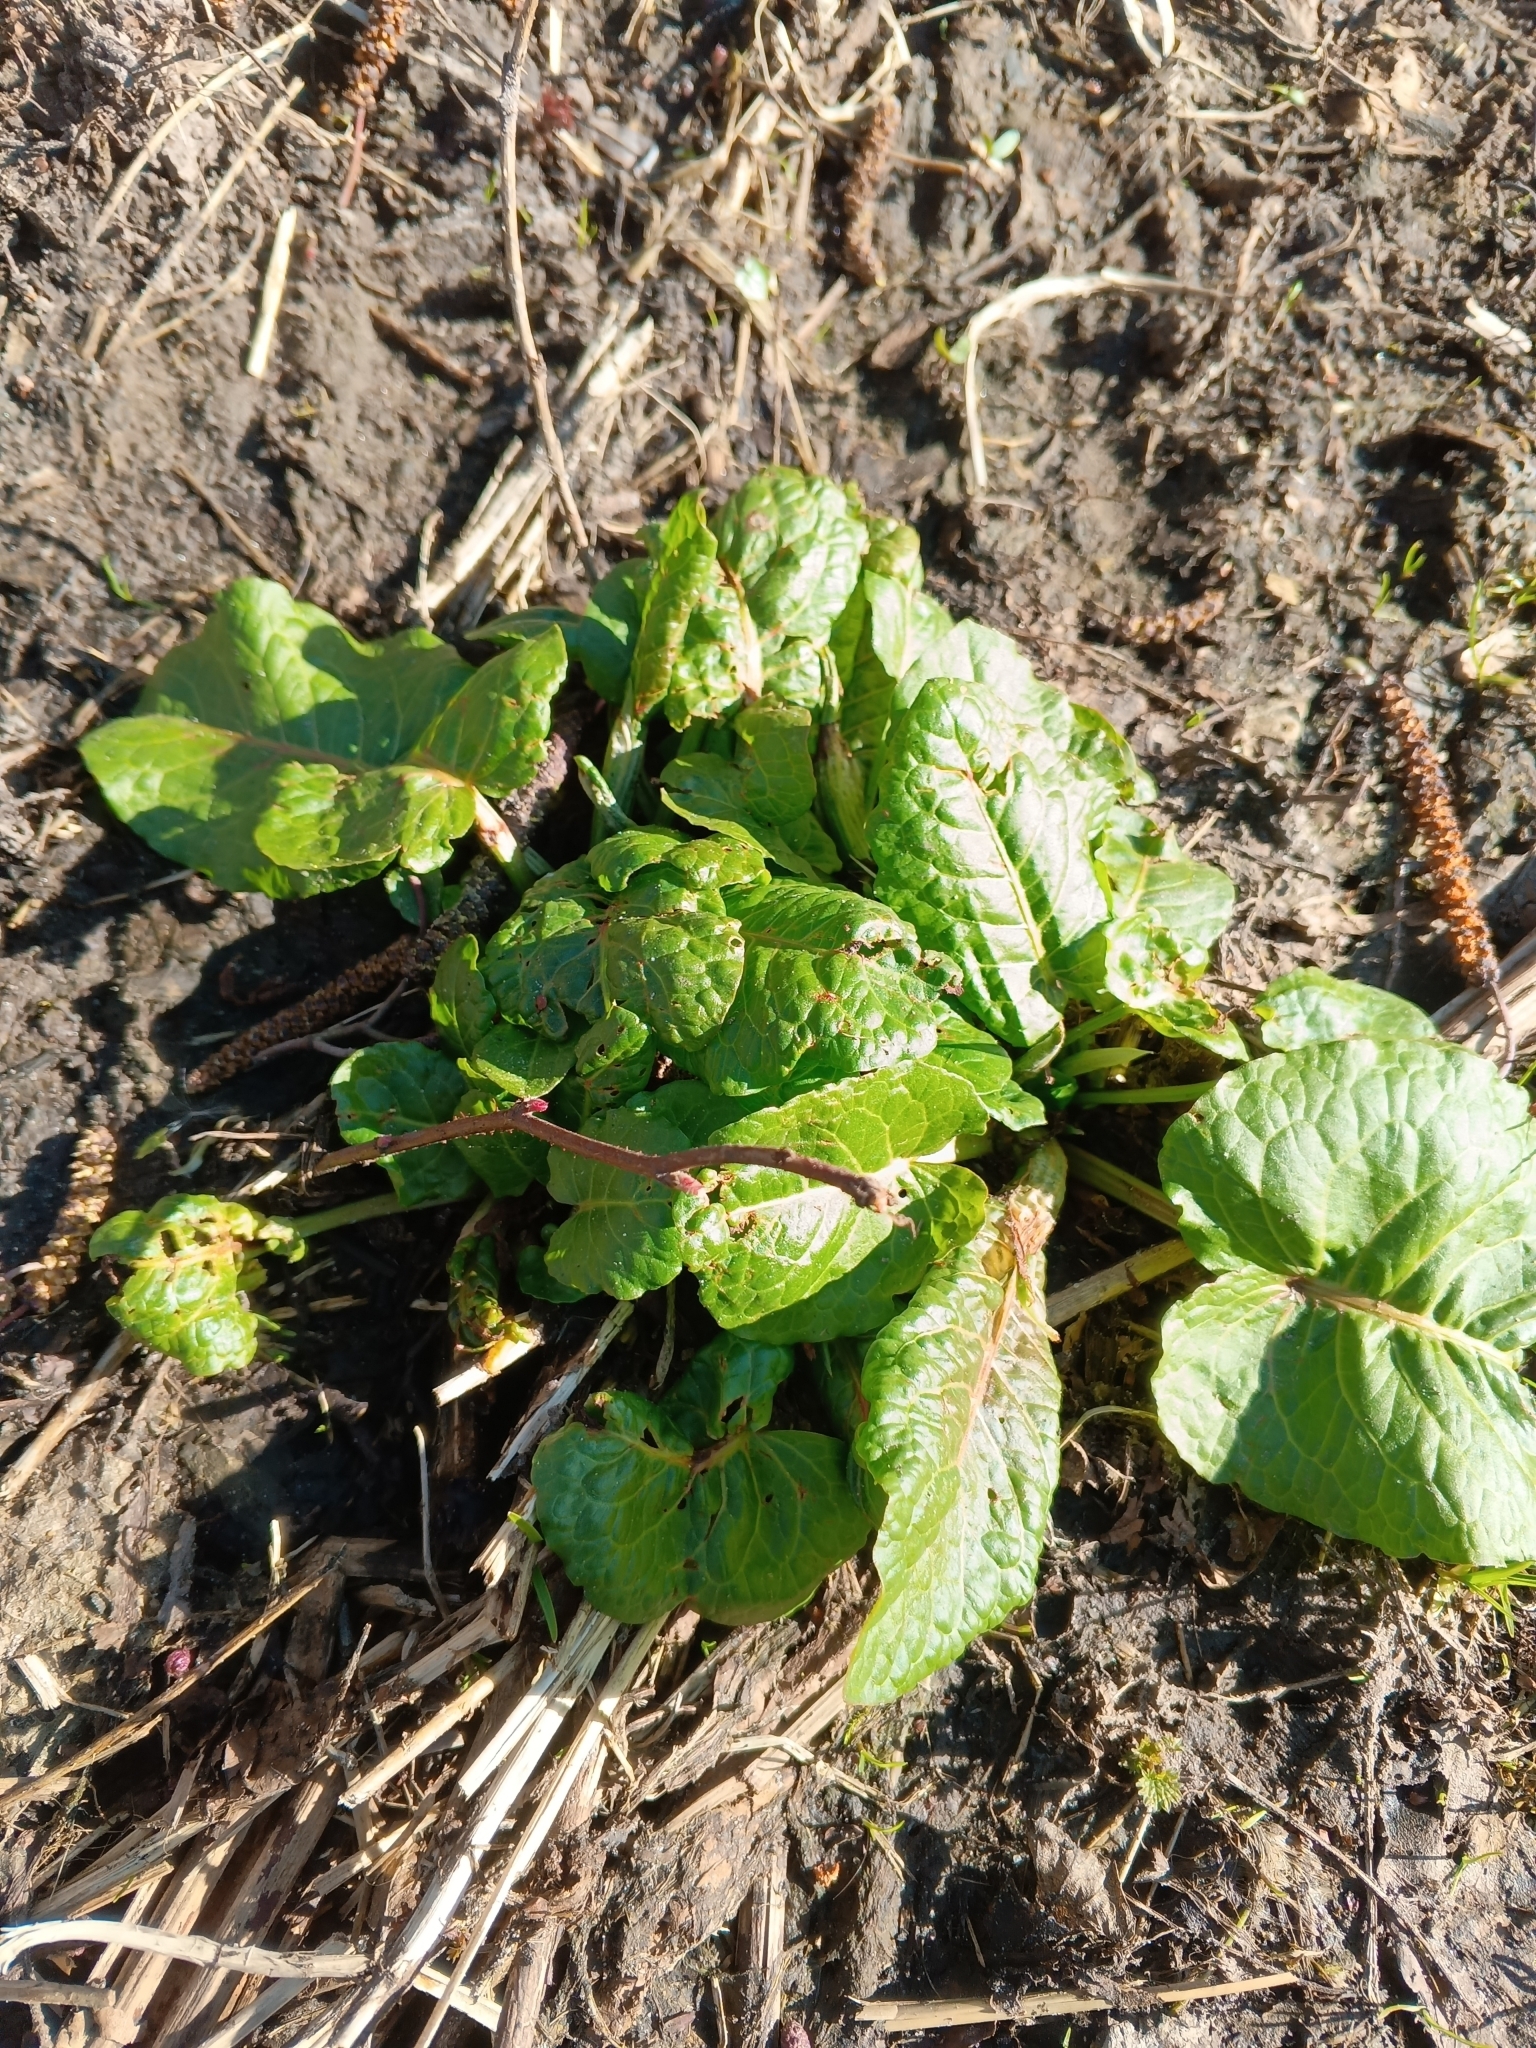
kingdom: Plantae
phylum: Tracheophyta
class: Magnoliopsida
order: Caryophyllales
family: Polygonaceae
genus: Rumex
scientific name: Rumex obtusifolius
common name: Bitter dock
